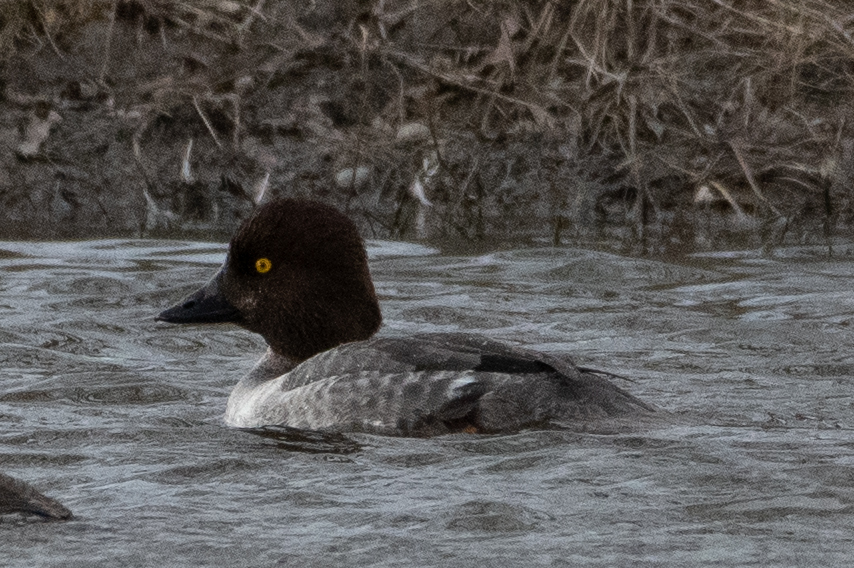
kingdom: Animalia
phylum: Chordata
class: Aves
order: Anseriformes
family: Anatidae
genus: Bucephala
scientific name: Bucephala clangula
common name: Common goldeneye
